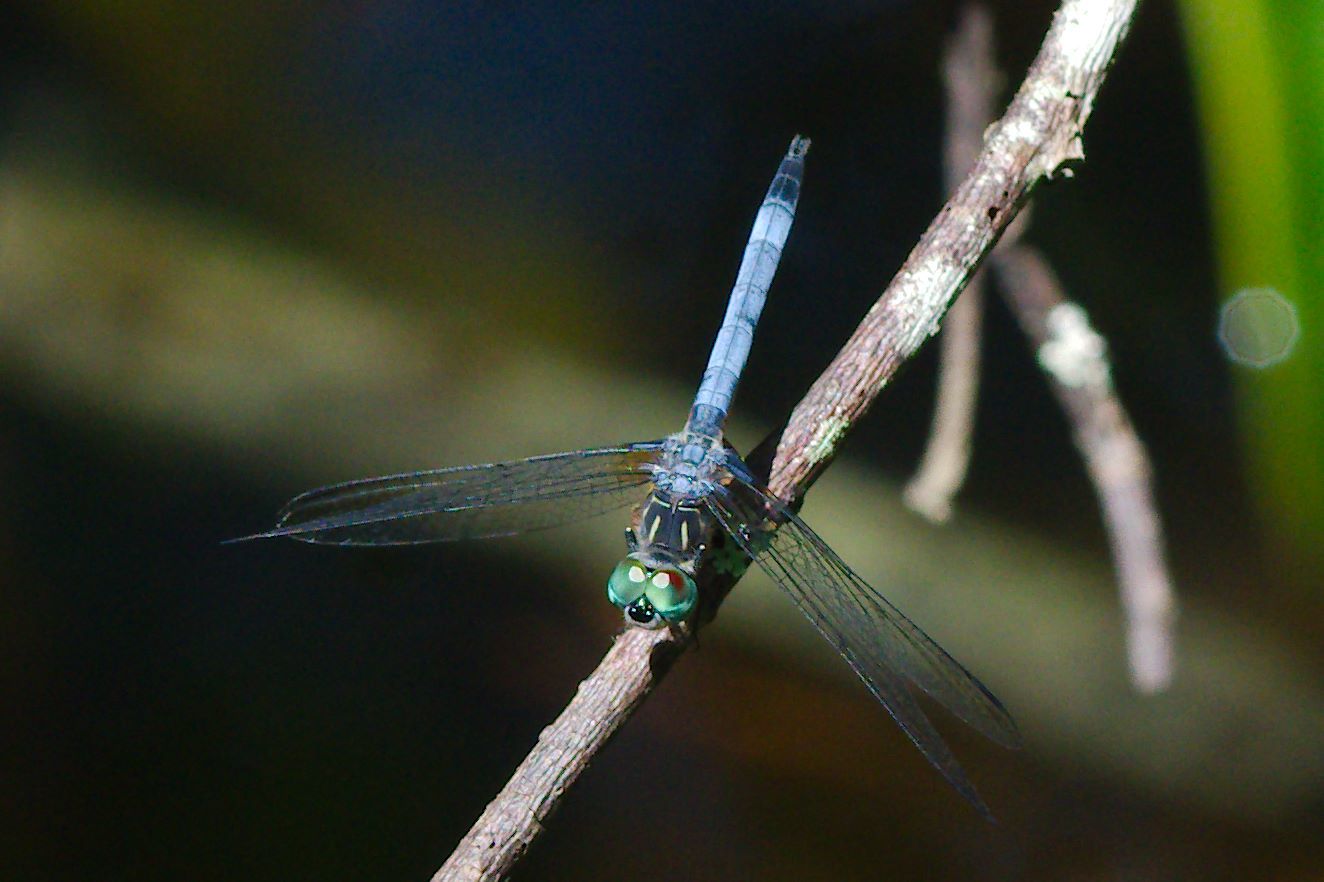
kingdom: Animalia
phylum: Arthropoda
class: Insecta
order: Odonata
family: Libellulidae
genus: Pachydiplax
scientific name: Pachydiplax longipennis
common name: Blue dasher
